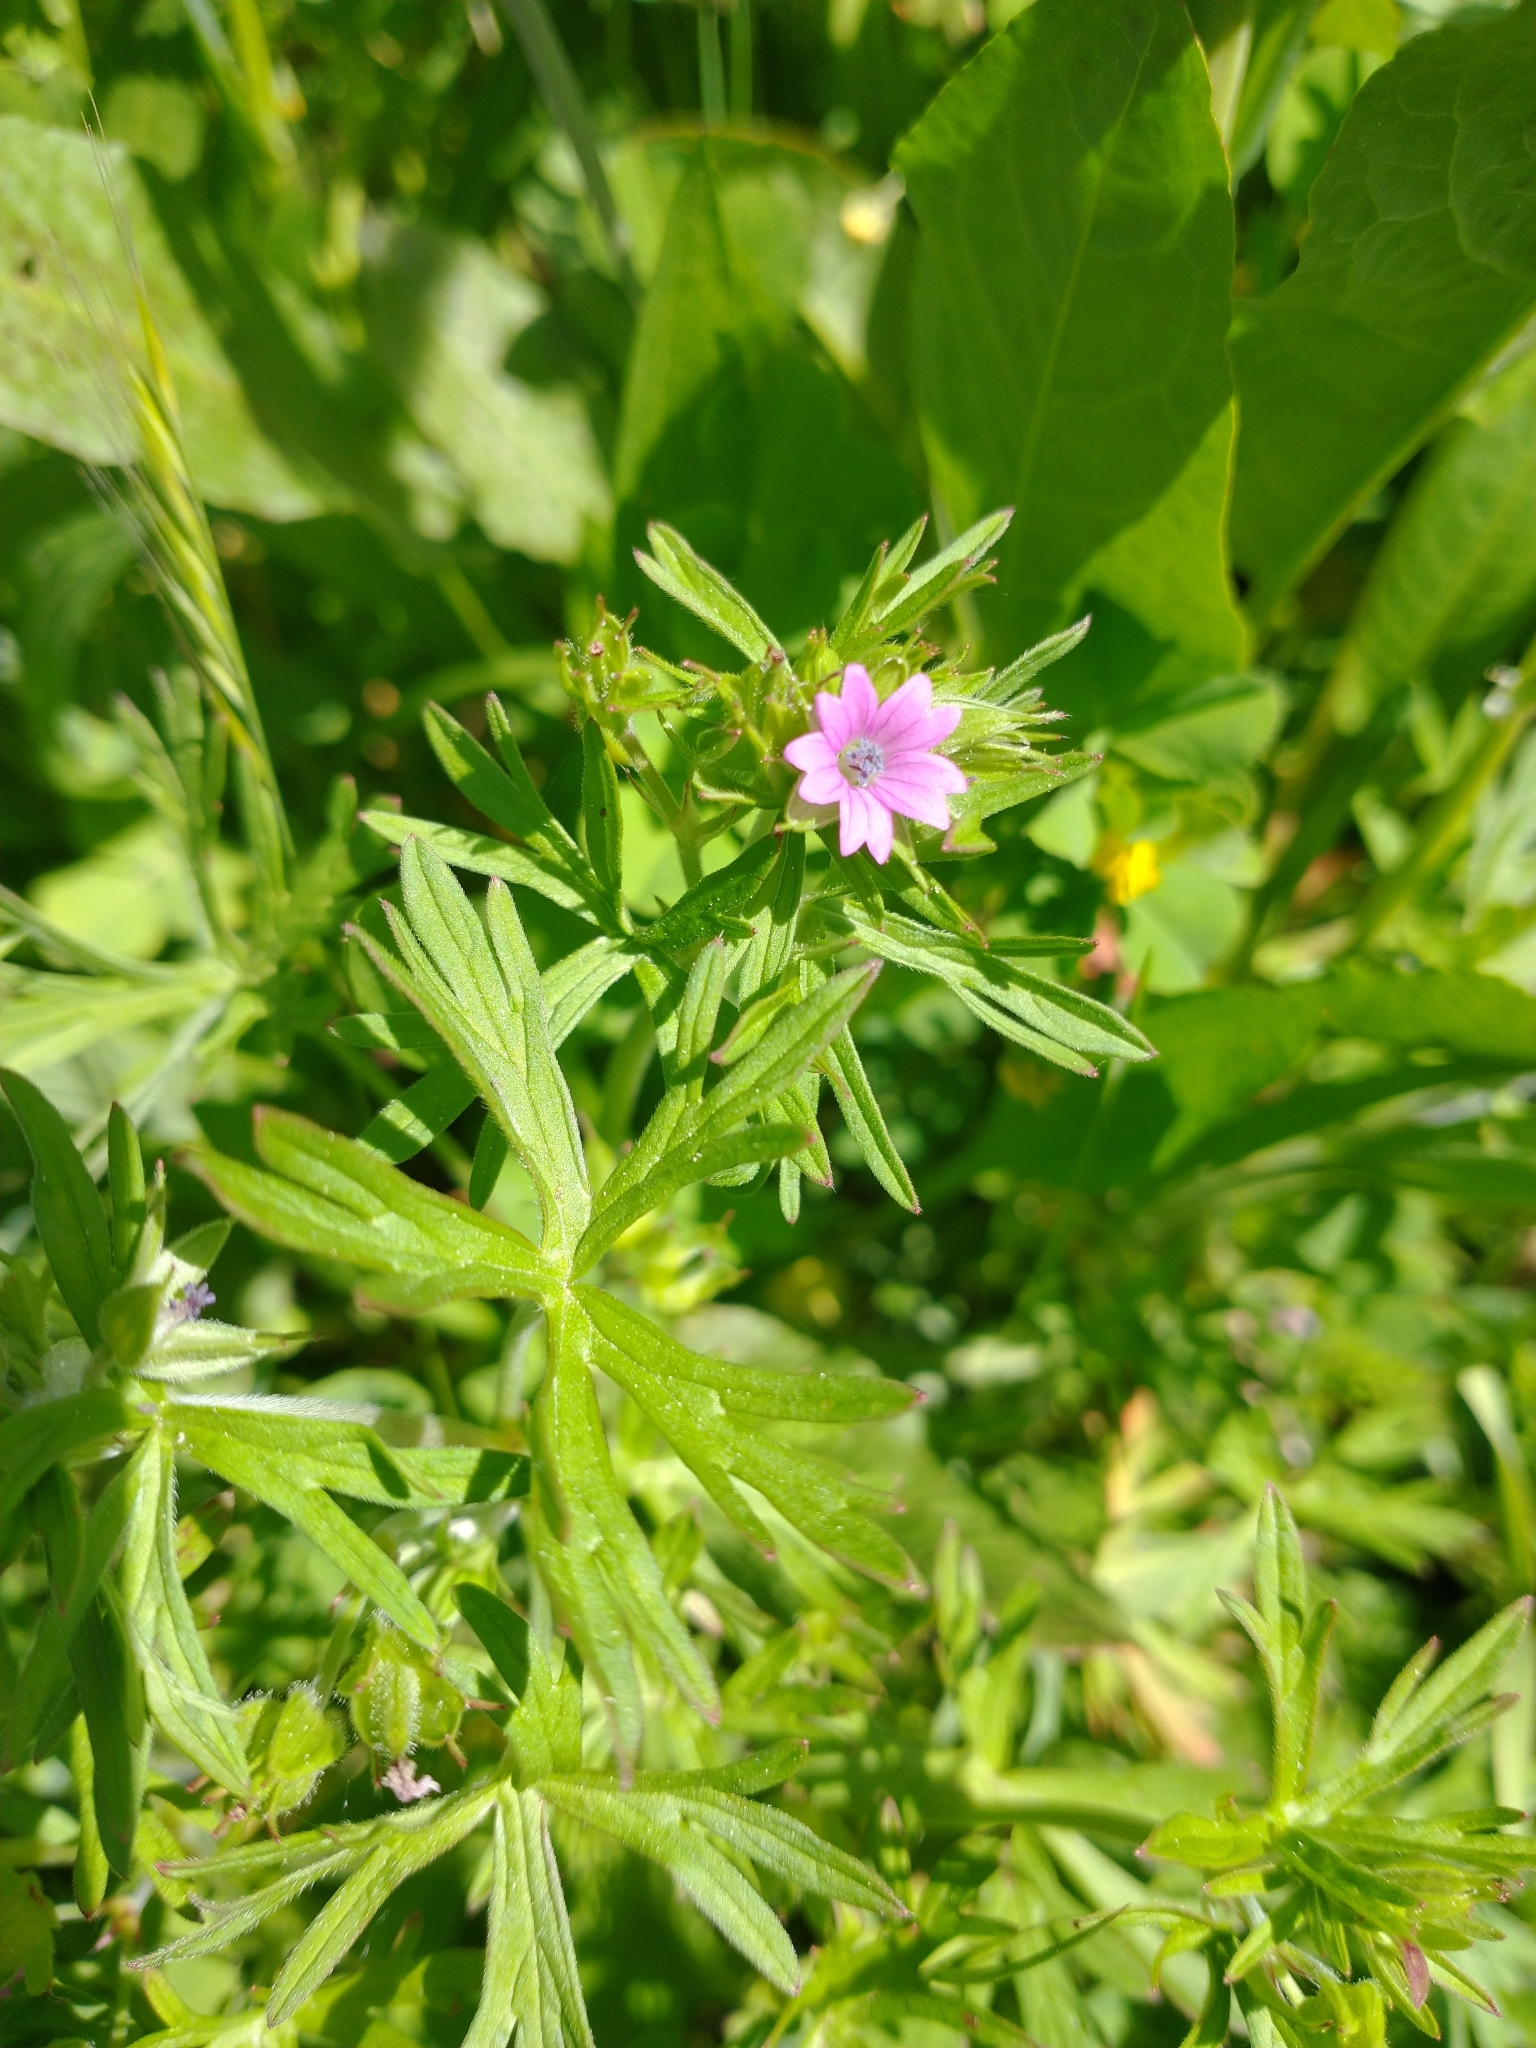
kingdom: Plantae
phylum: Tracheophyta
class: Magnoliopsida
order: Geraniales
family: Geraniaceae
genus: Geranium
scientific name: Geranium dissectum
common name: Cut-leaved crane's-bill
